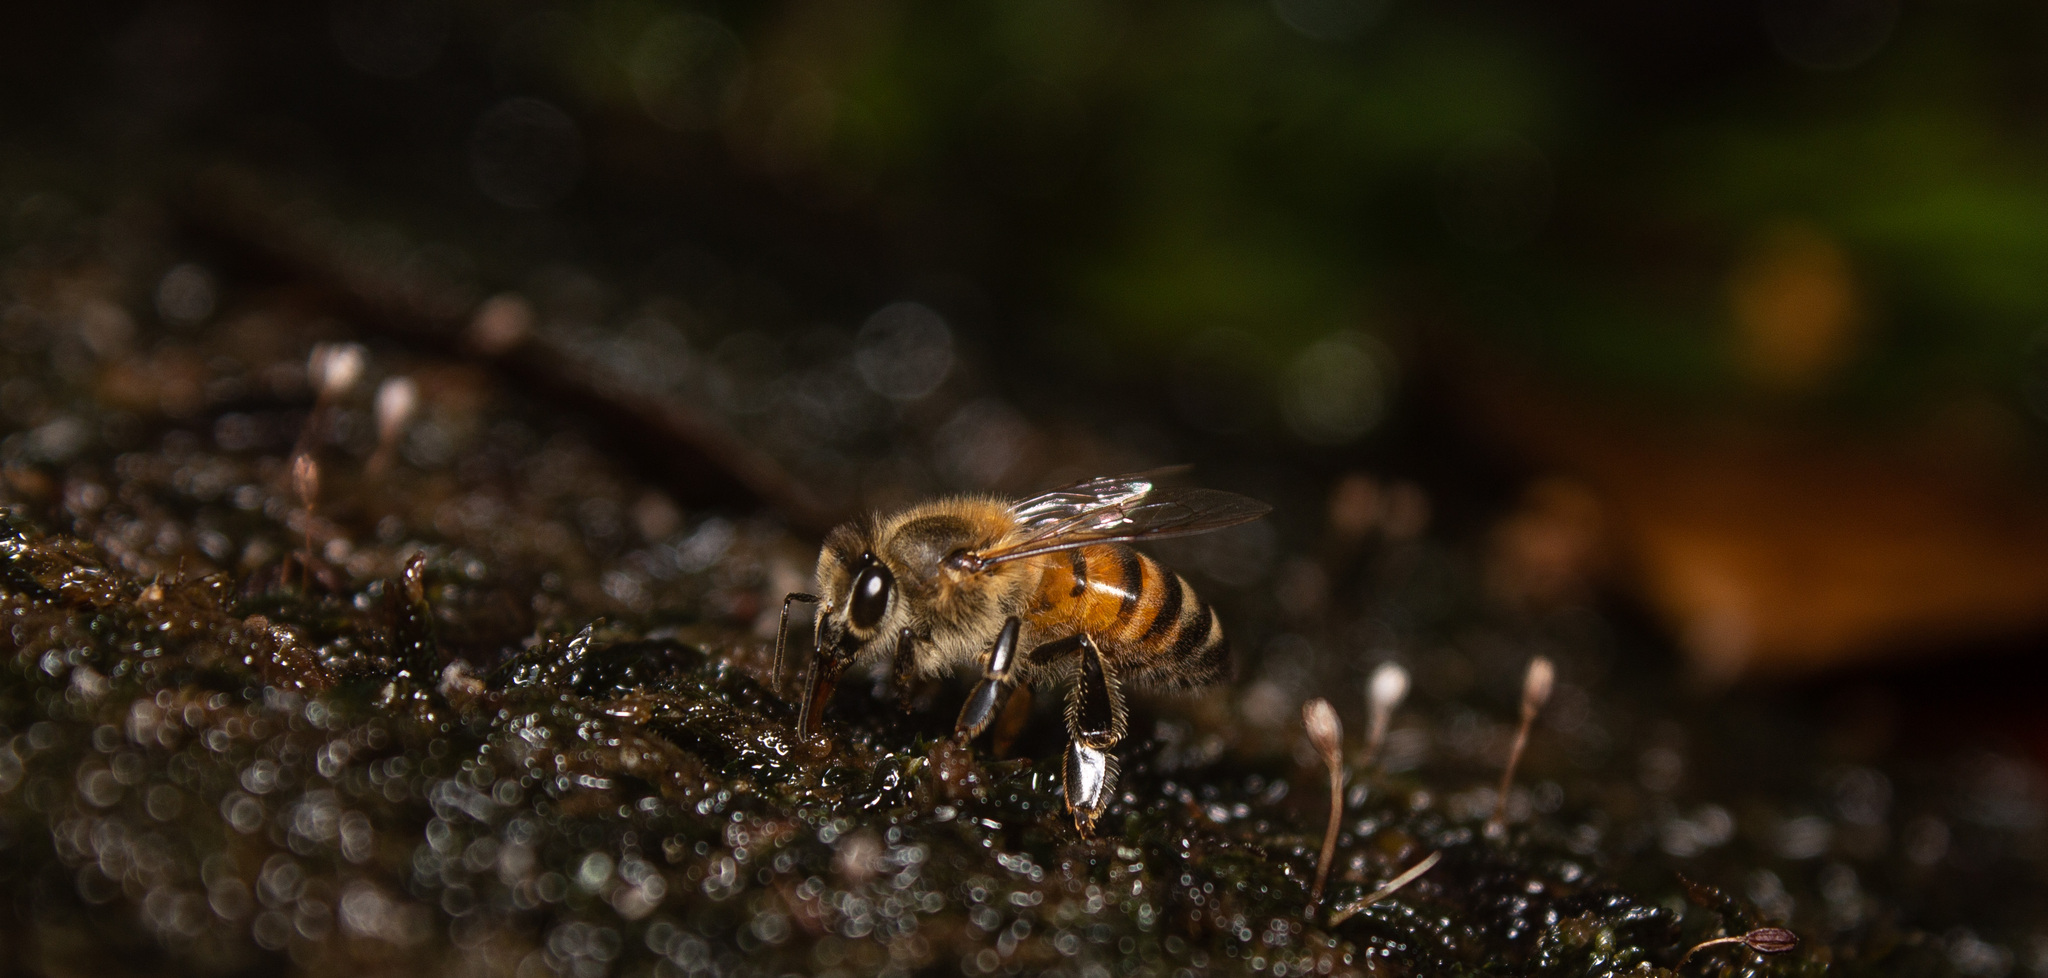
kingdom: Animalia
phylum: Arthropoda
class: Insecta
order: Hymenoptera
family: Apidae
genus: Apis
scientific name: Apis mellifera
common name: Honey bee
